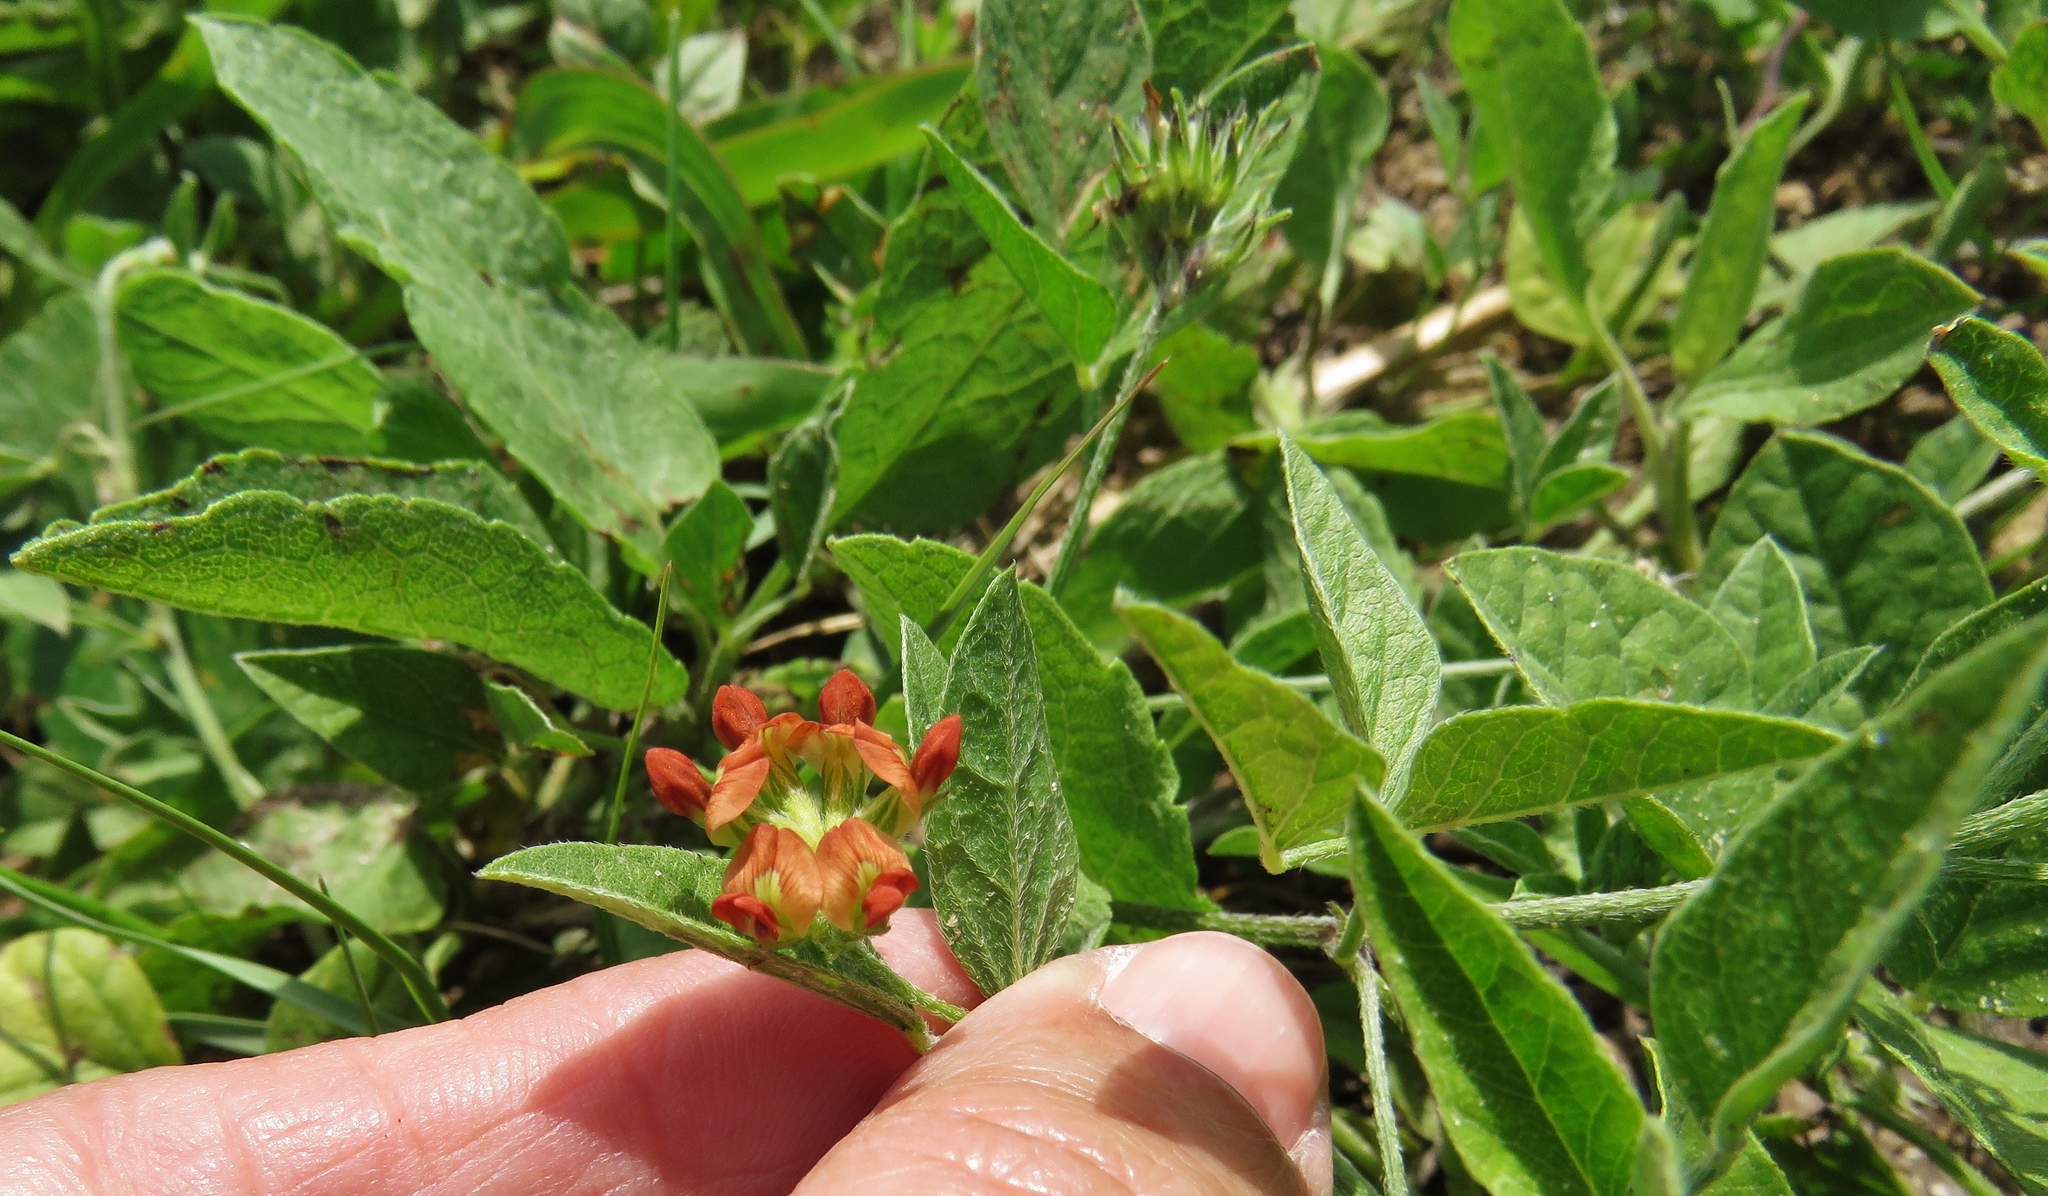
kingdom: Plantae
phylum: Tracheophyta
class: Magnoliopsida
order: Fabales
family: Fabaceae
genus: Pediomelum
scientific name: Pediomelum rhombifolium
